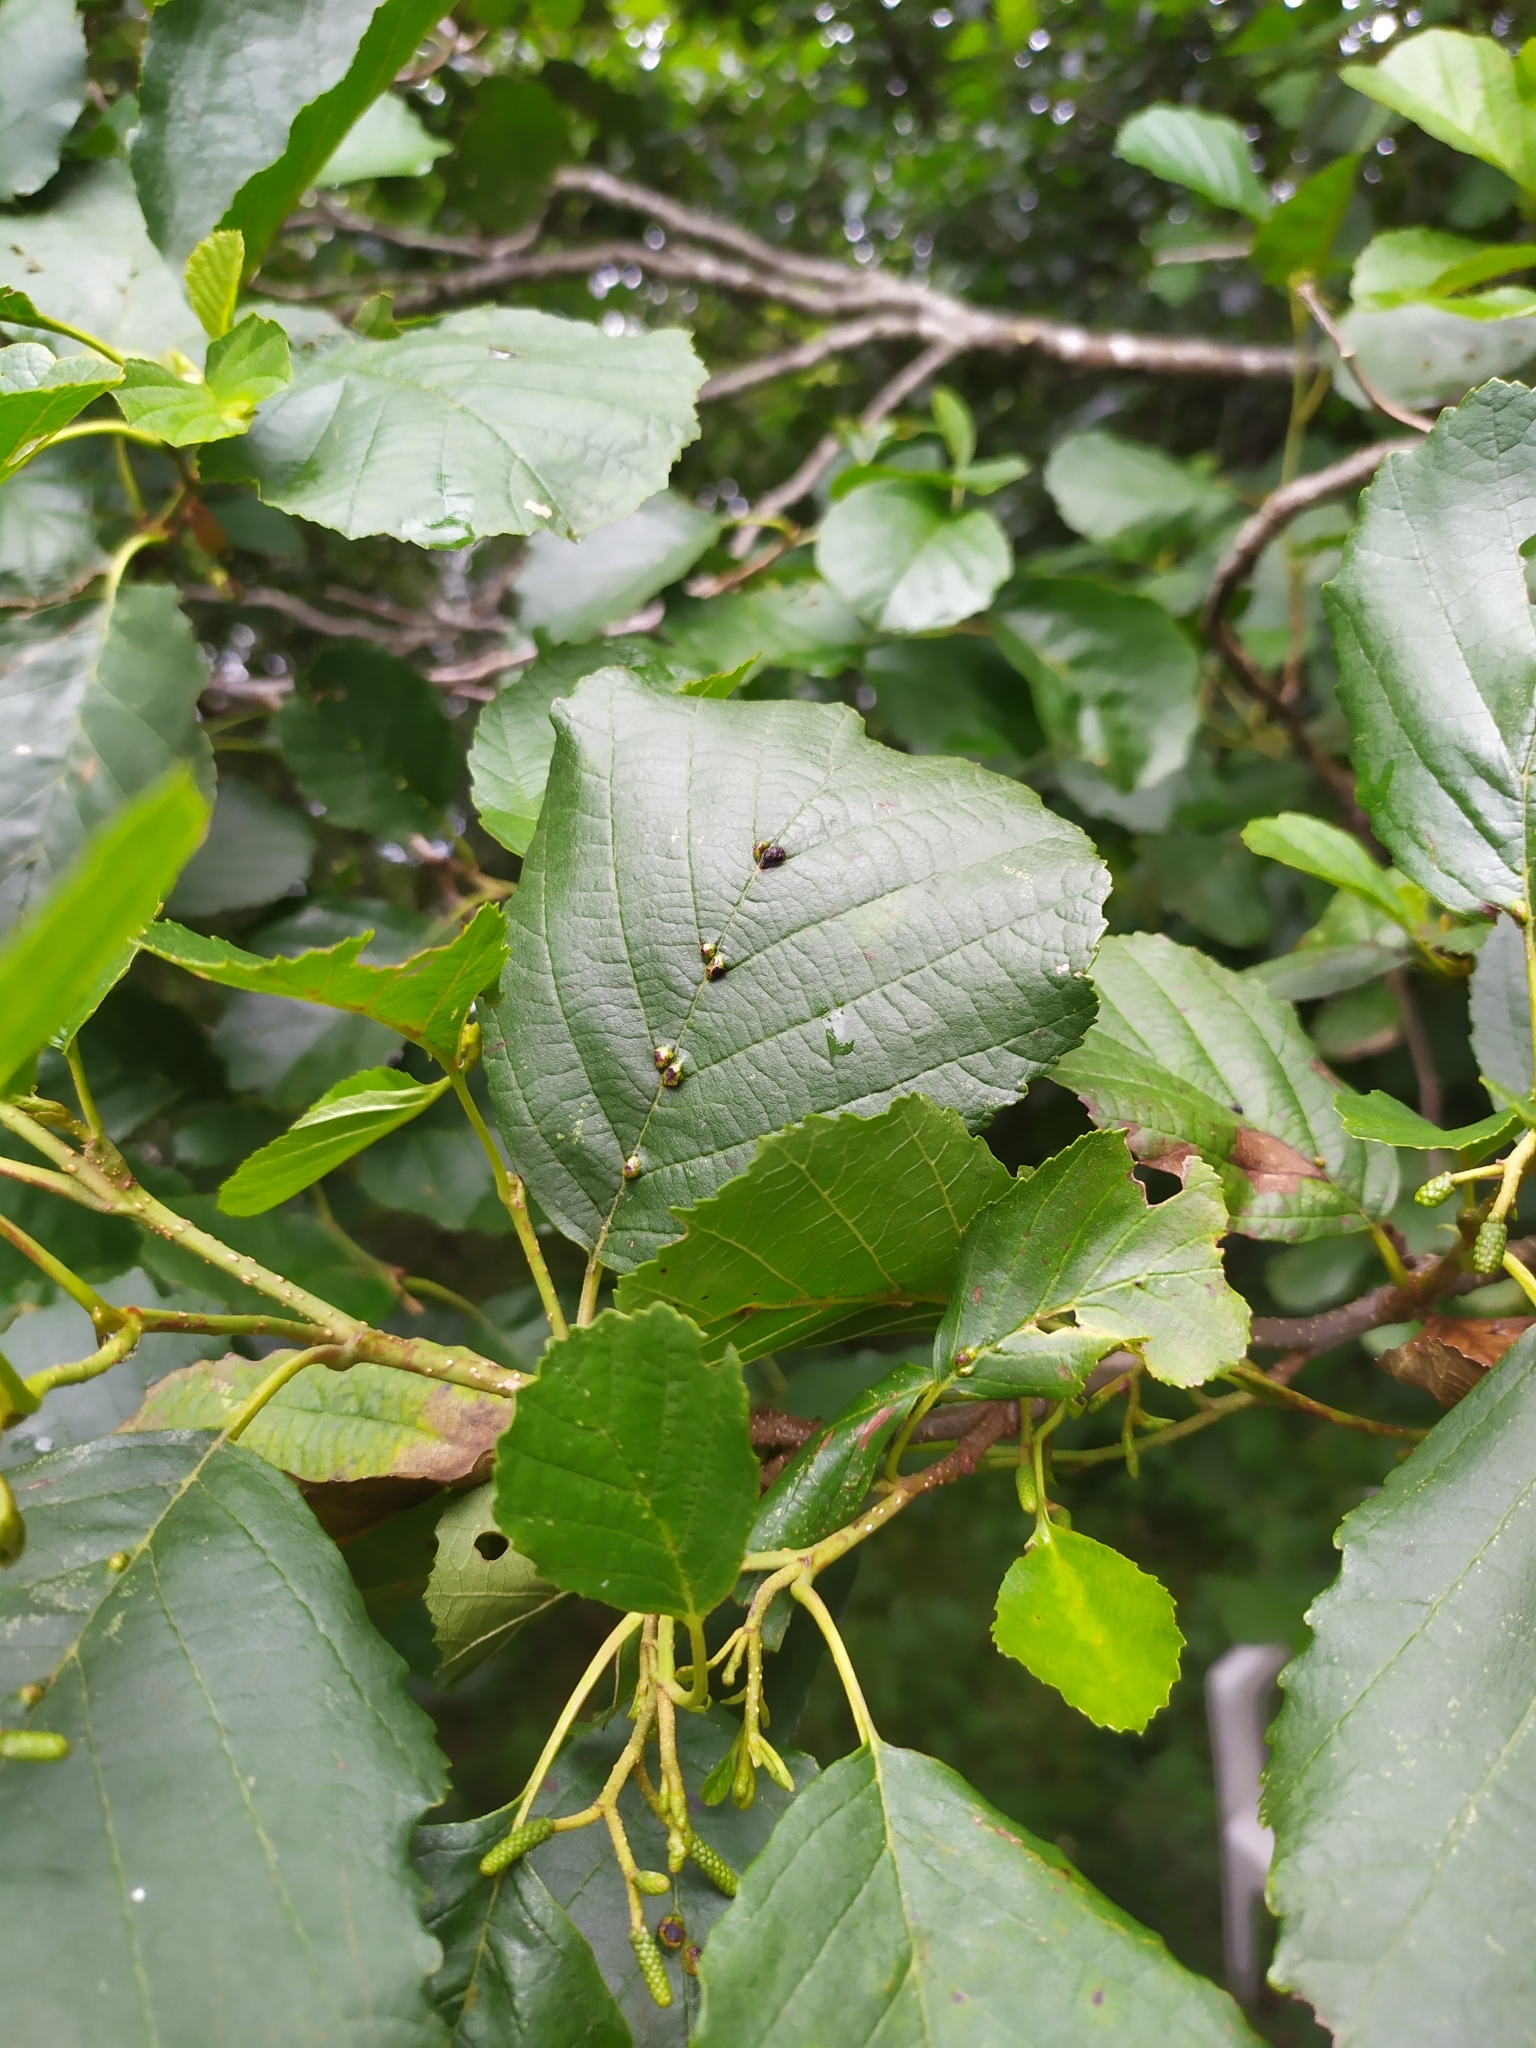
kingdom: Animalia
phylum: Arthropoda
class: Arachnida
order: Trombidiformes
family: Eriophyidae
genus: Eriophyes
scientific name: Eriophyes inangulis
